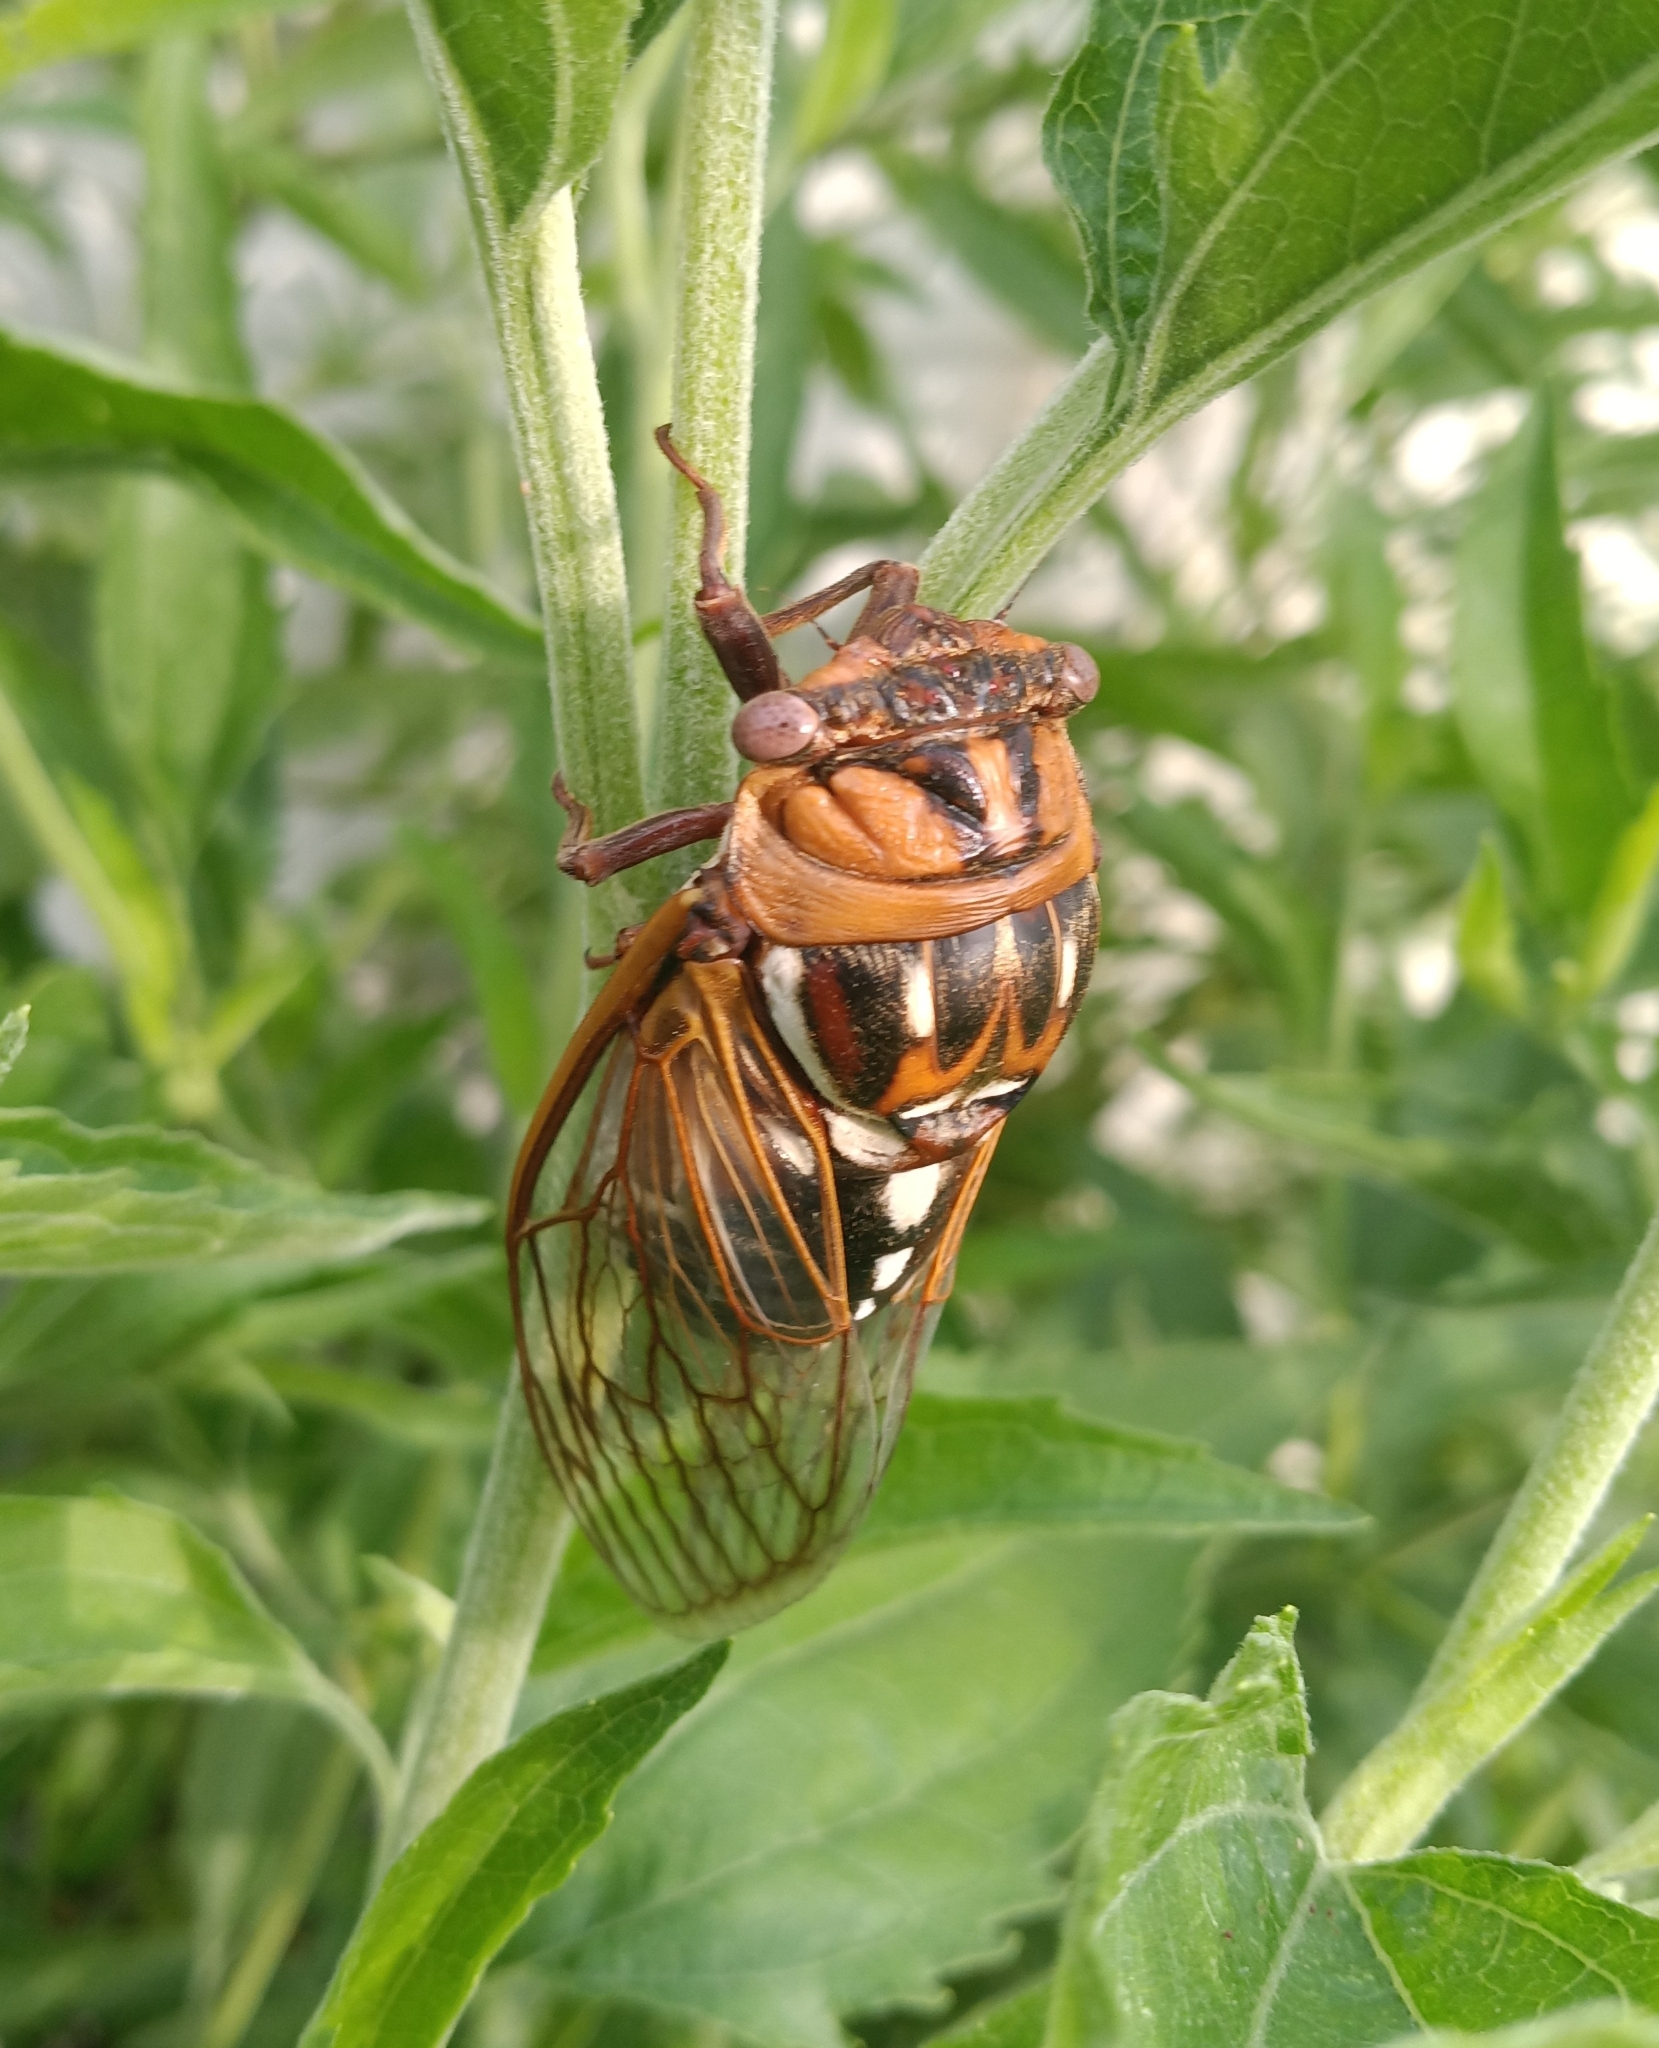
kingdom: Animalia
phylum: Arthropoda
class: Insecta
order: Hemiptera
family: Cicadidae
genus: Megatibicen
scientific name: Megatibicen dorsatus
